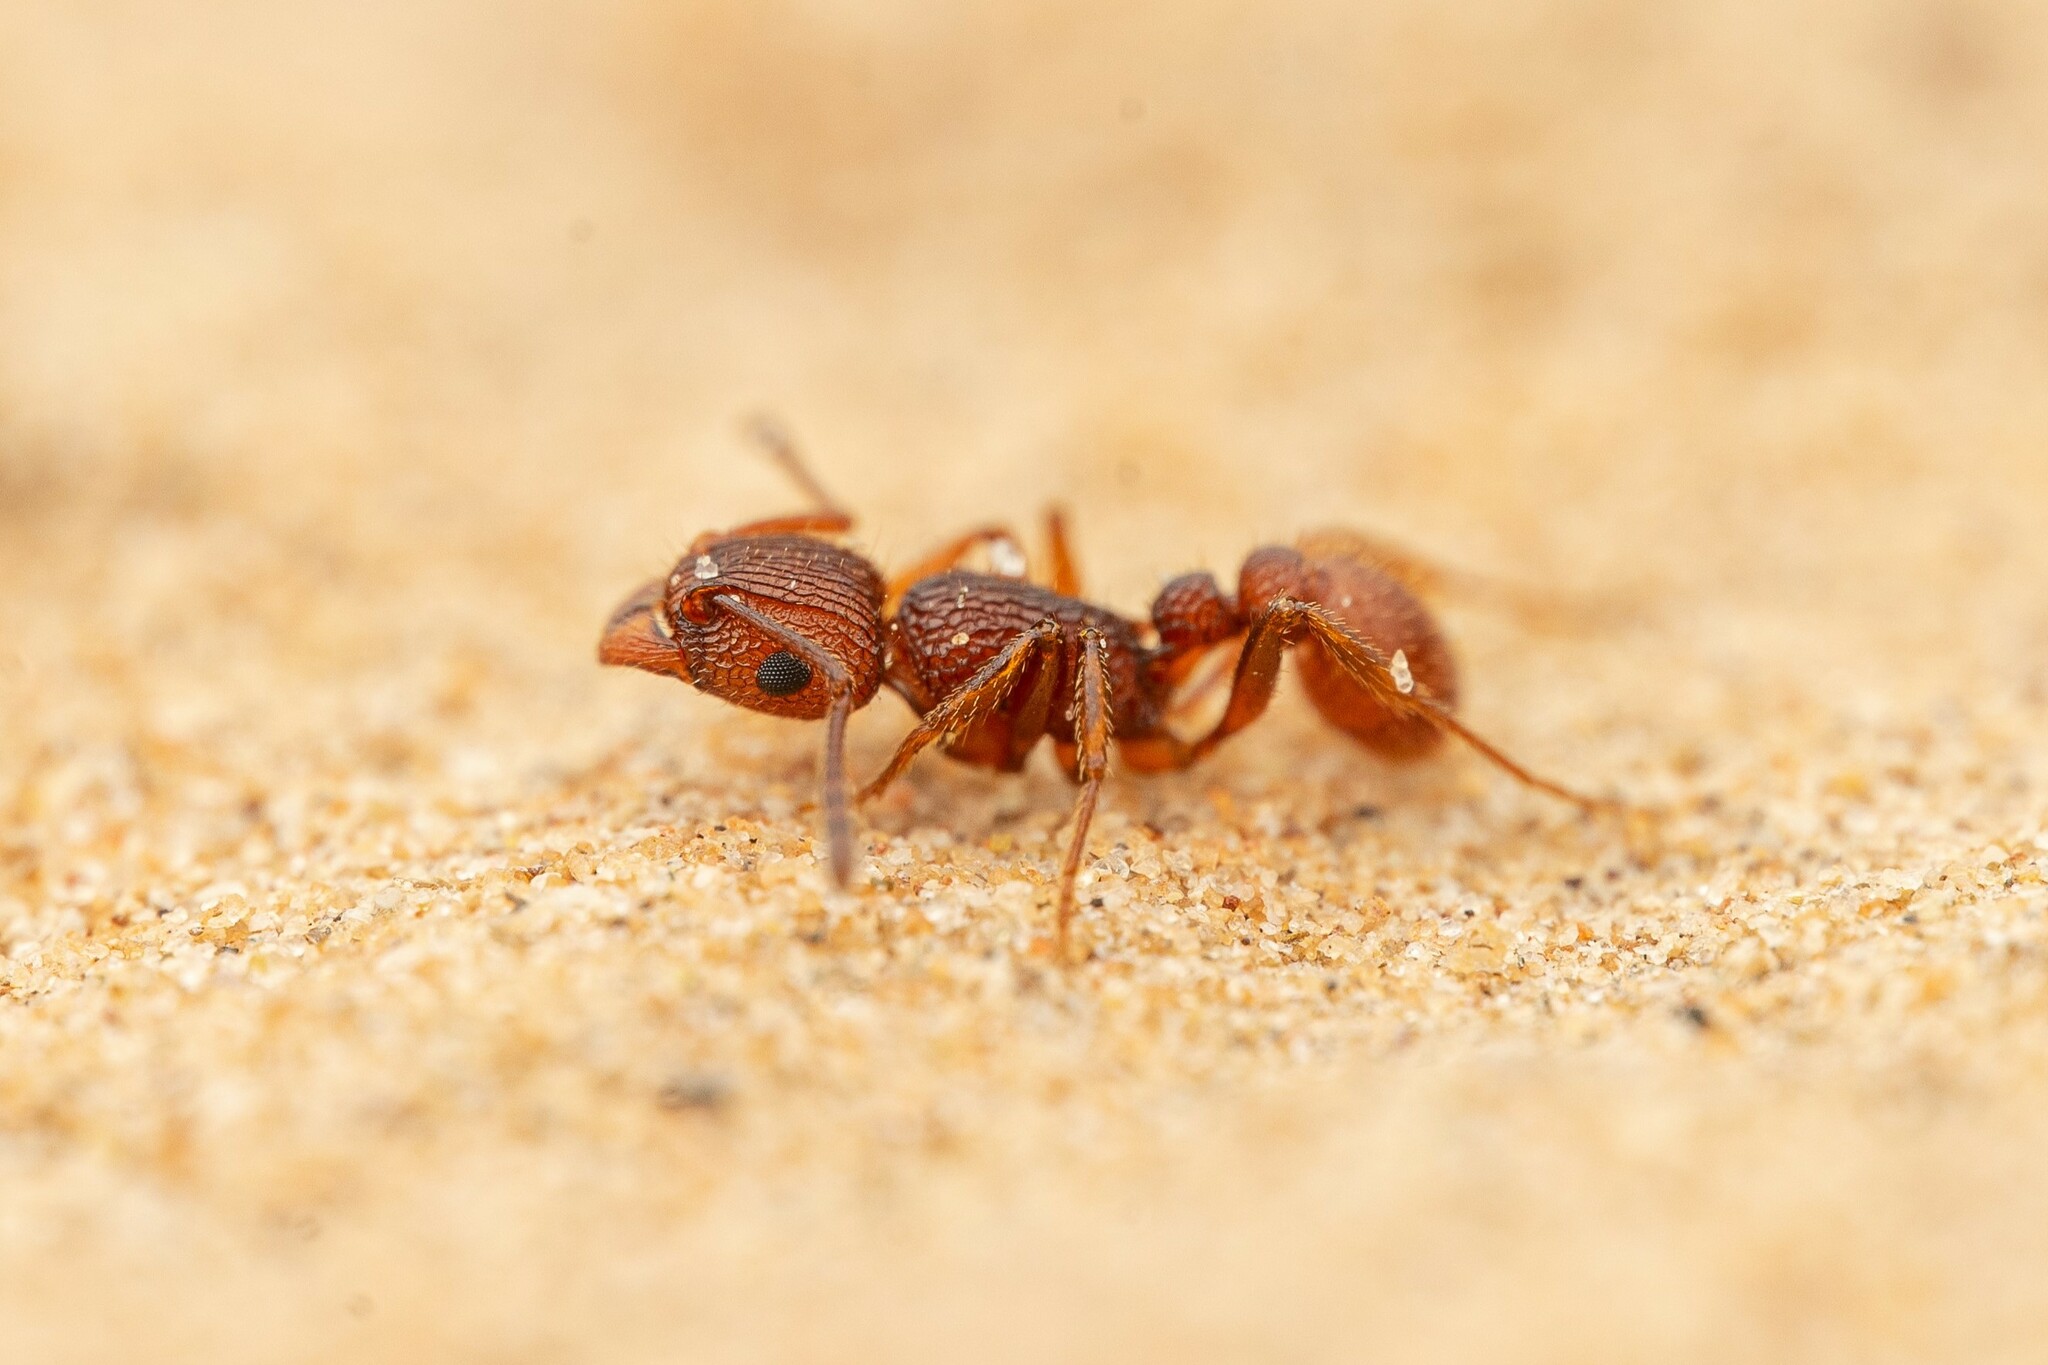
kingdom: Animalia
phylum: Arthropoda
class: Insecta
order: Hymenoptera
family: Formicidae
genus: Tetramorium
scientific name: Tetramorium hispidum
